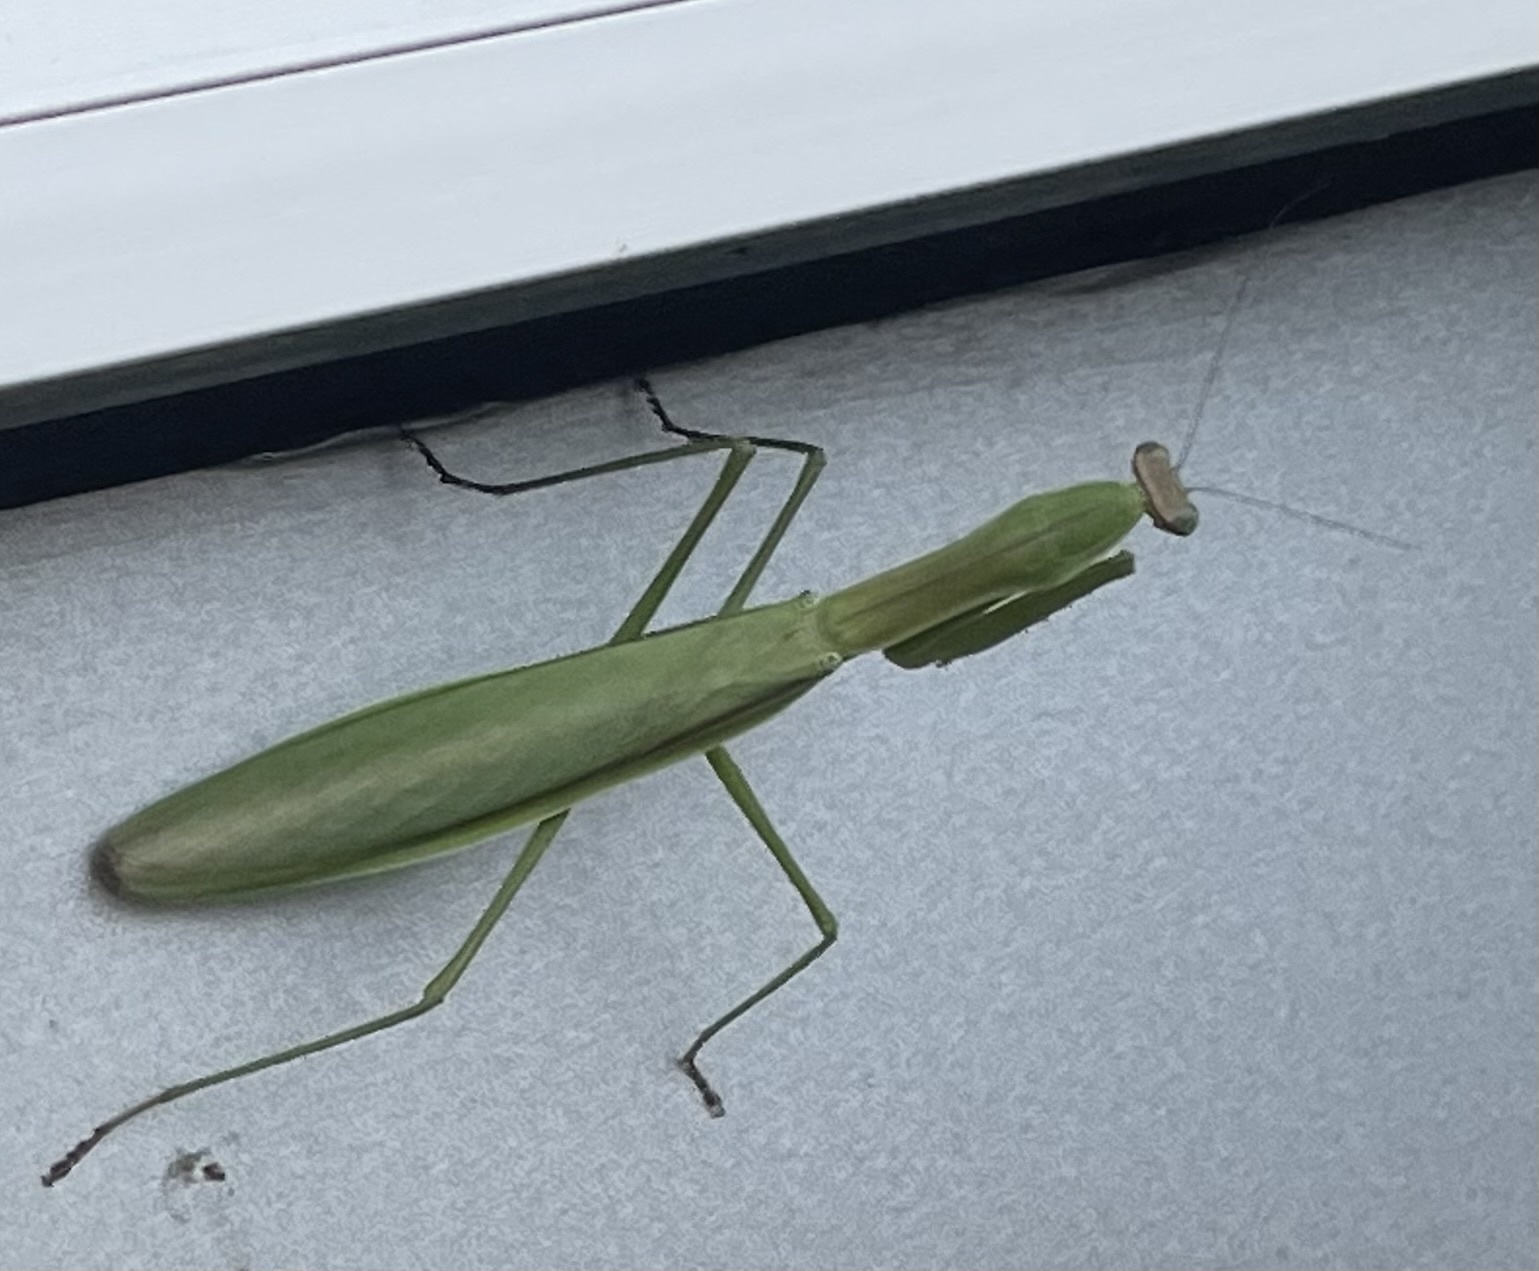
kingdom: Animalia
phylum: Arthropoda
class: Insecta
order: Mantodea
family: Mantidae
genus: Tenodera
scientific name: Tenodera sinensis
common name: Chinese mantis
